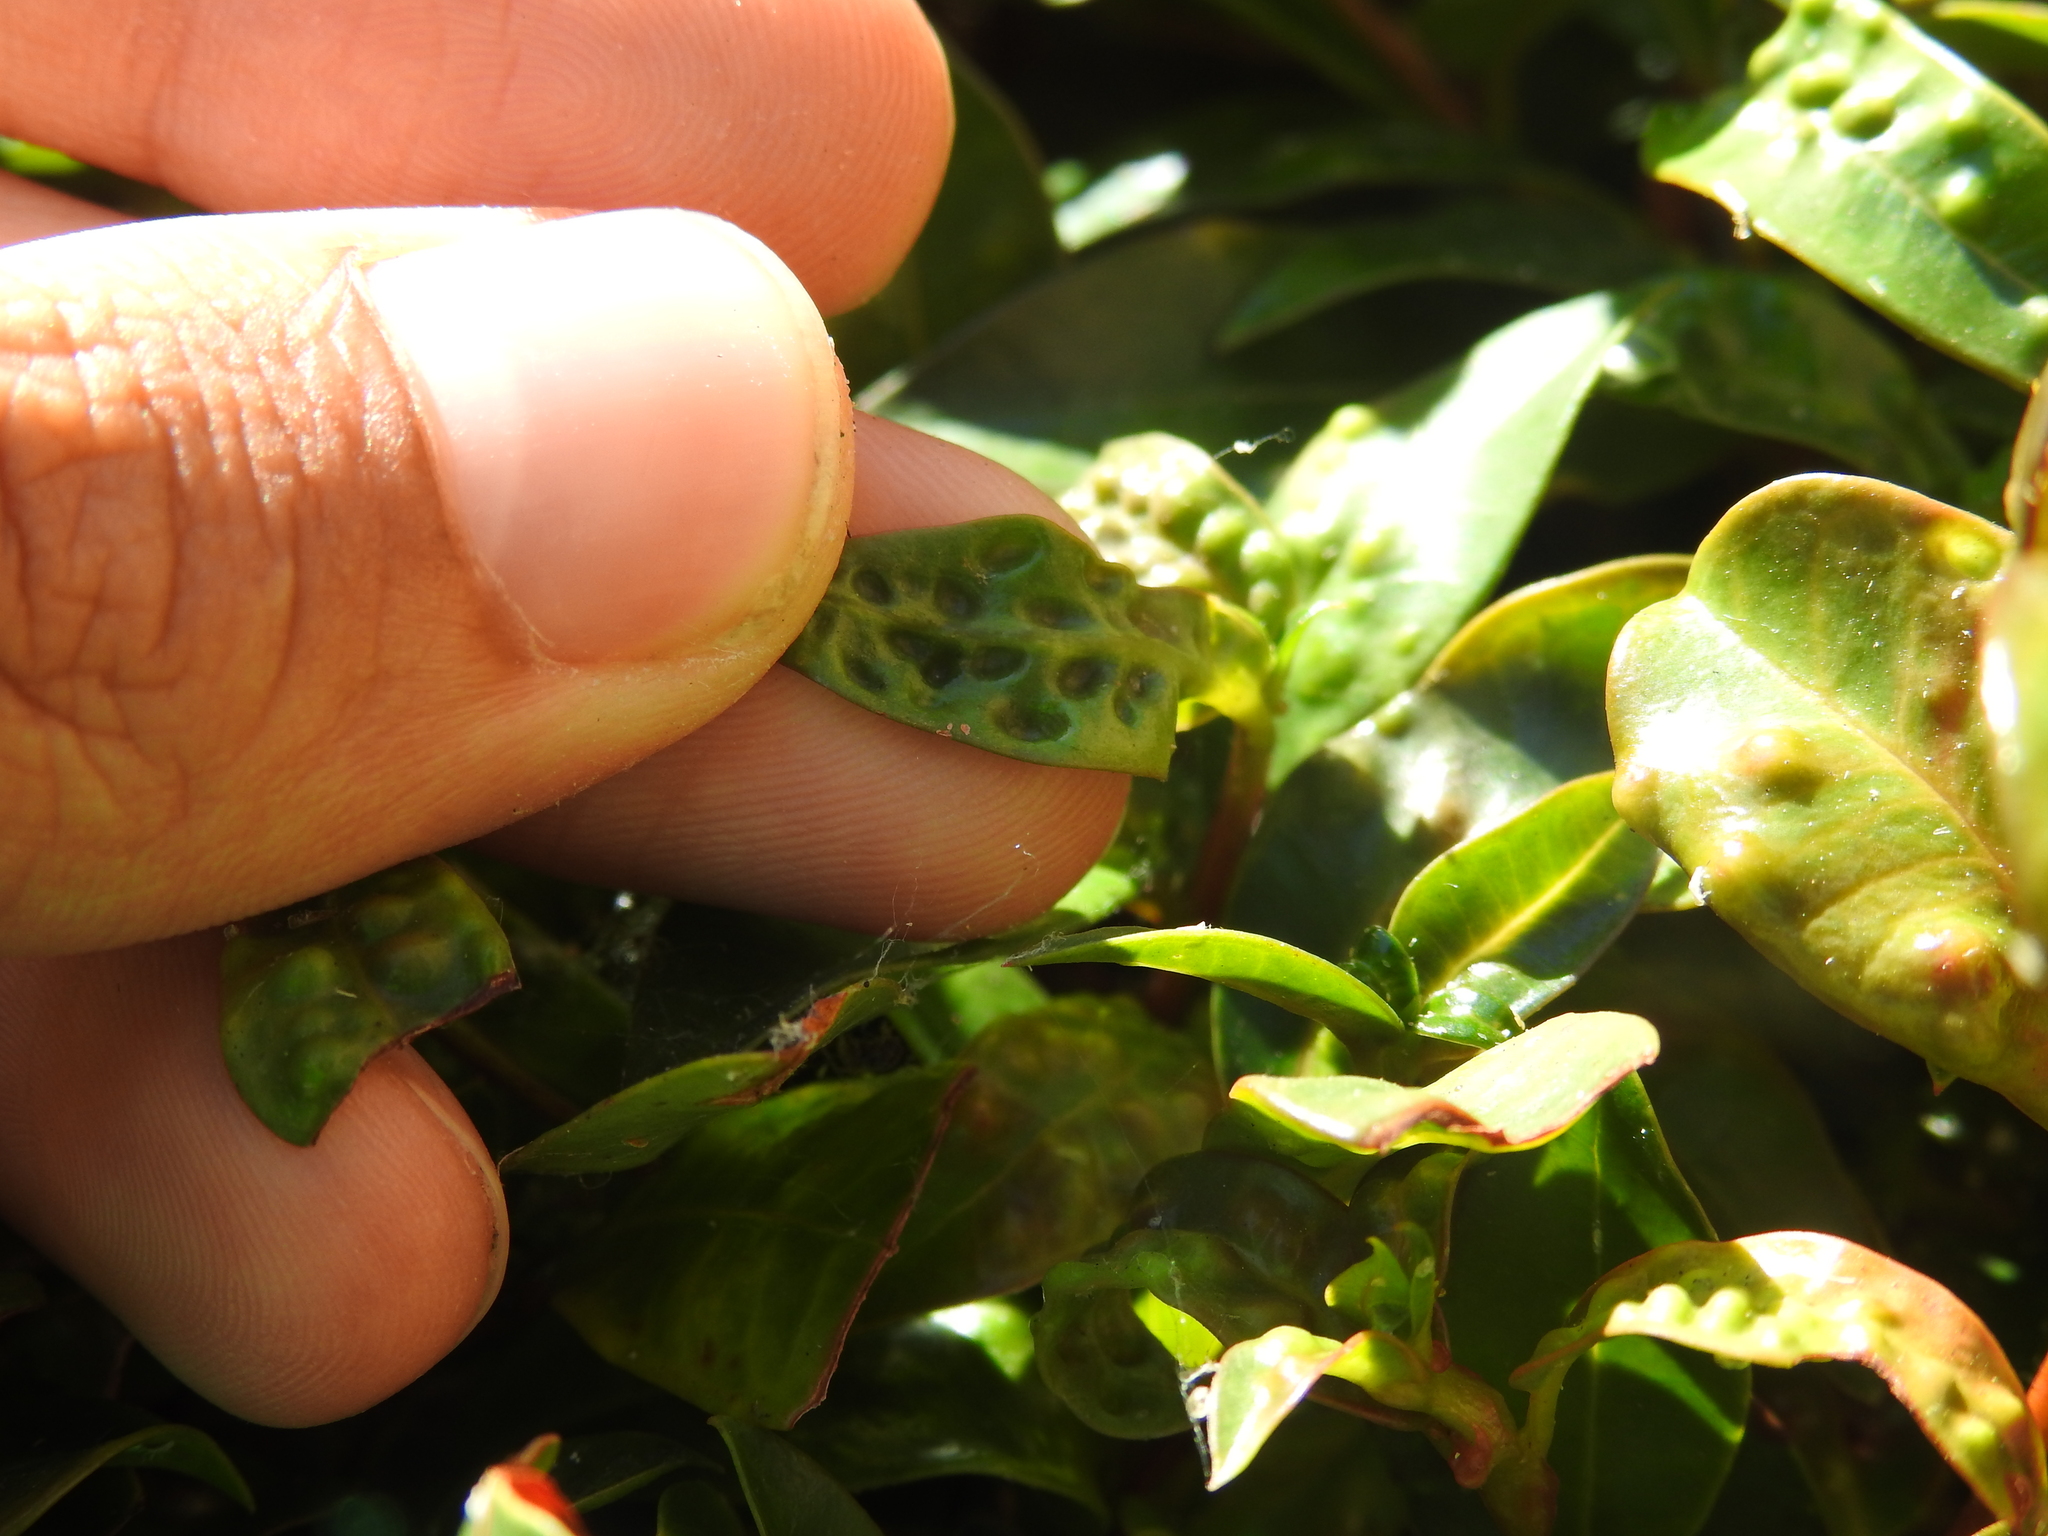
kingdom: Animalia
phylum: Arthropoda
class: Insecta
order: Hemiptera
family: Triozidae
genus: Trioza
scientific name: Trioza adventicia
